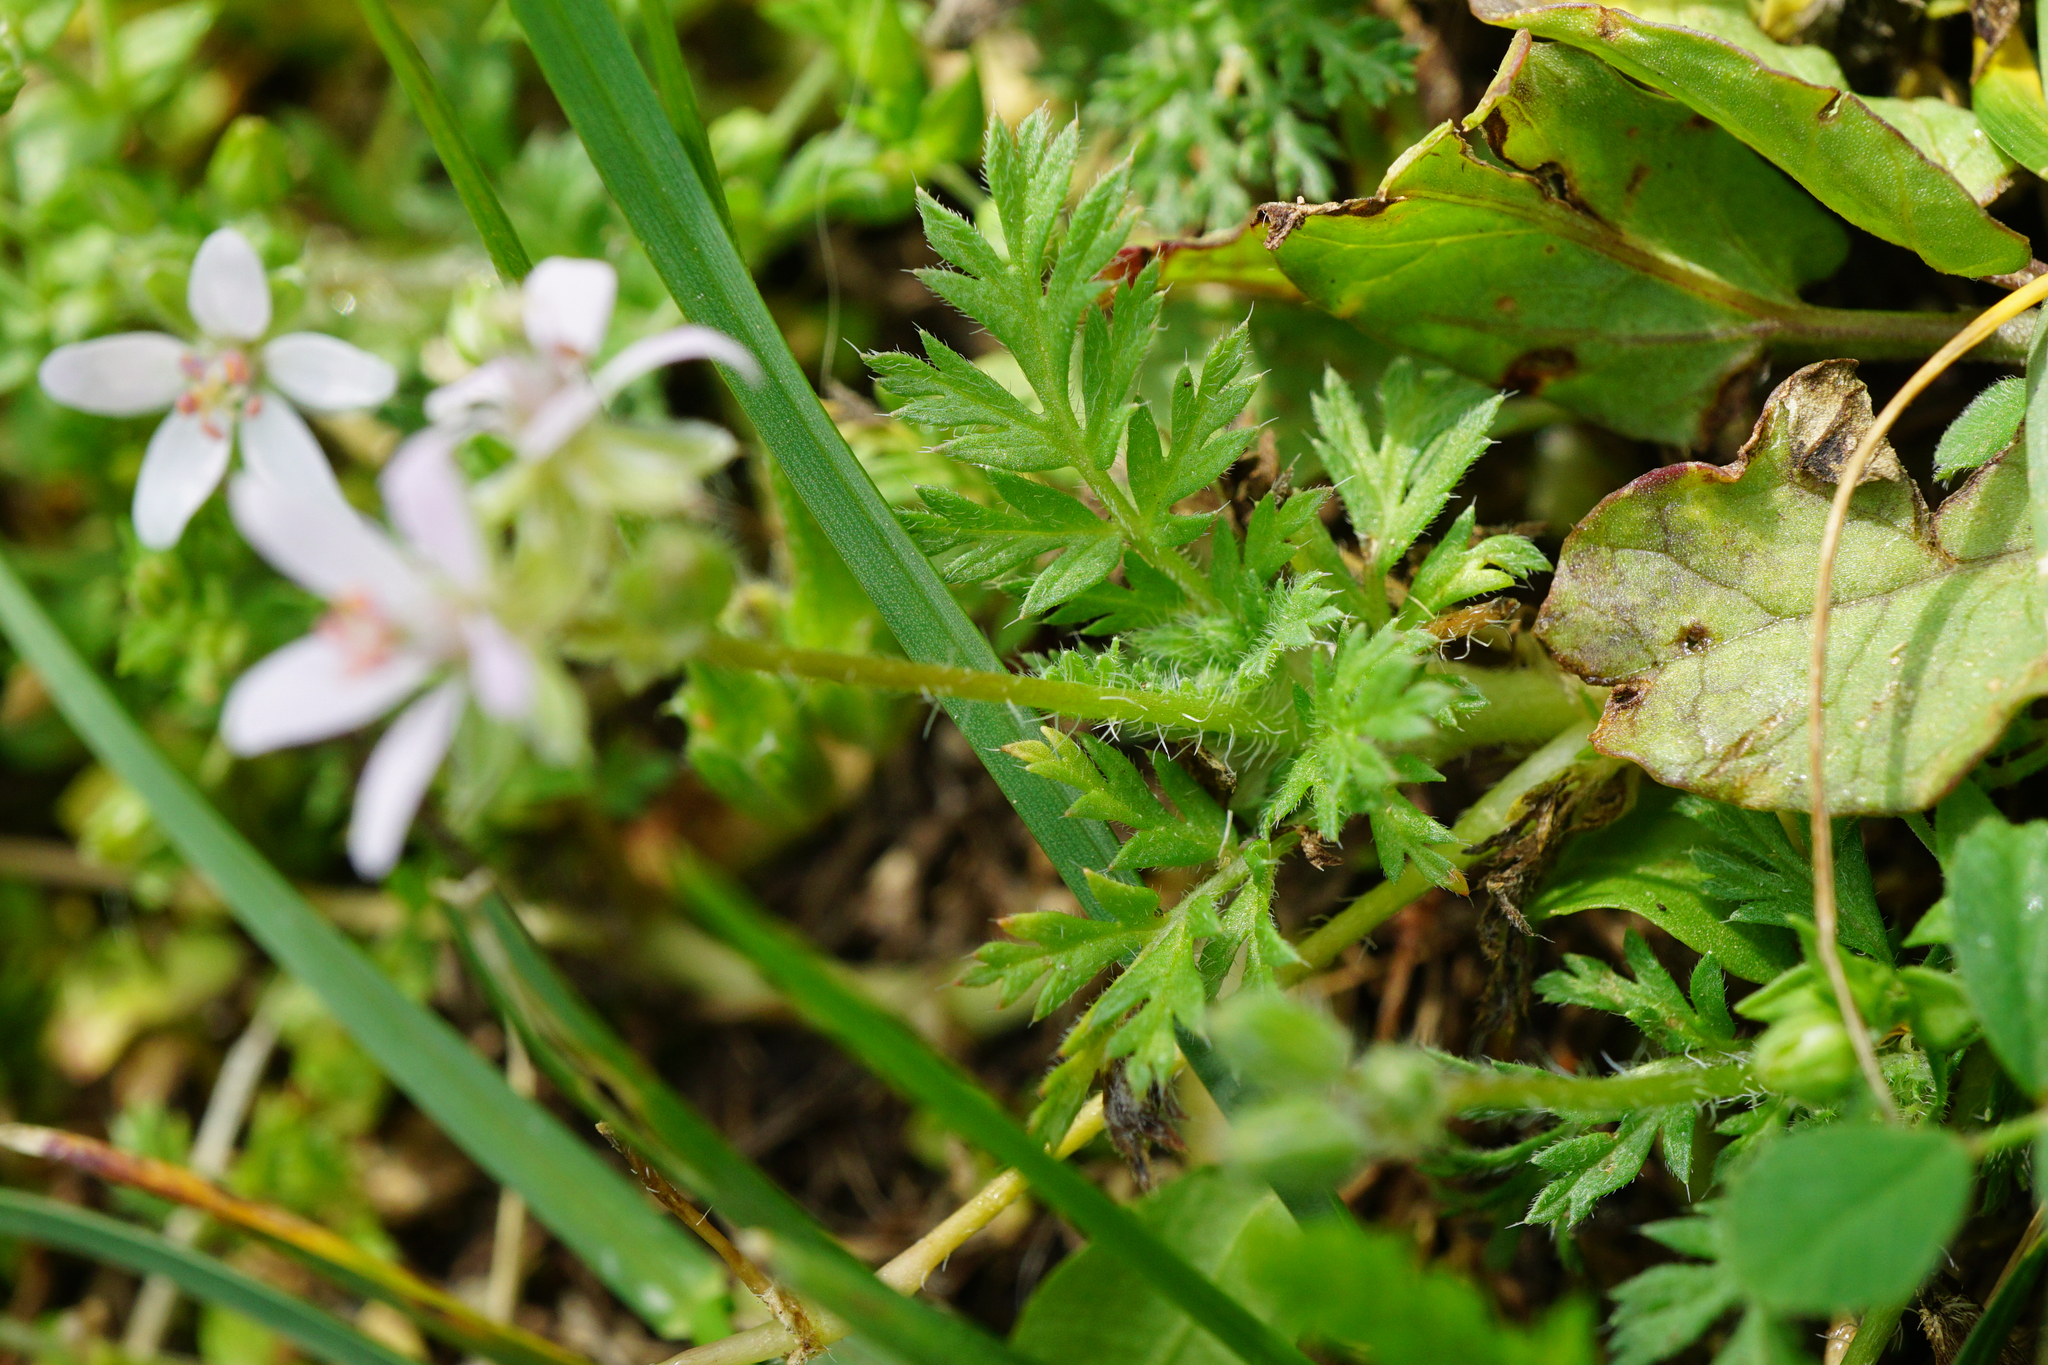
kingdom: Plantae
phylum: Tracheophyta
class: Magnoliopsida
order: Geraniales
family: Geraniaceae
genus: Erodium
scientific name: Erodium cicutarium
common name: Common stork's-bill
